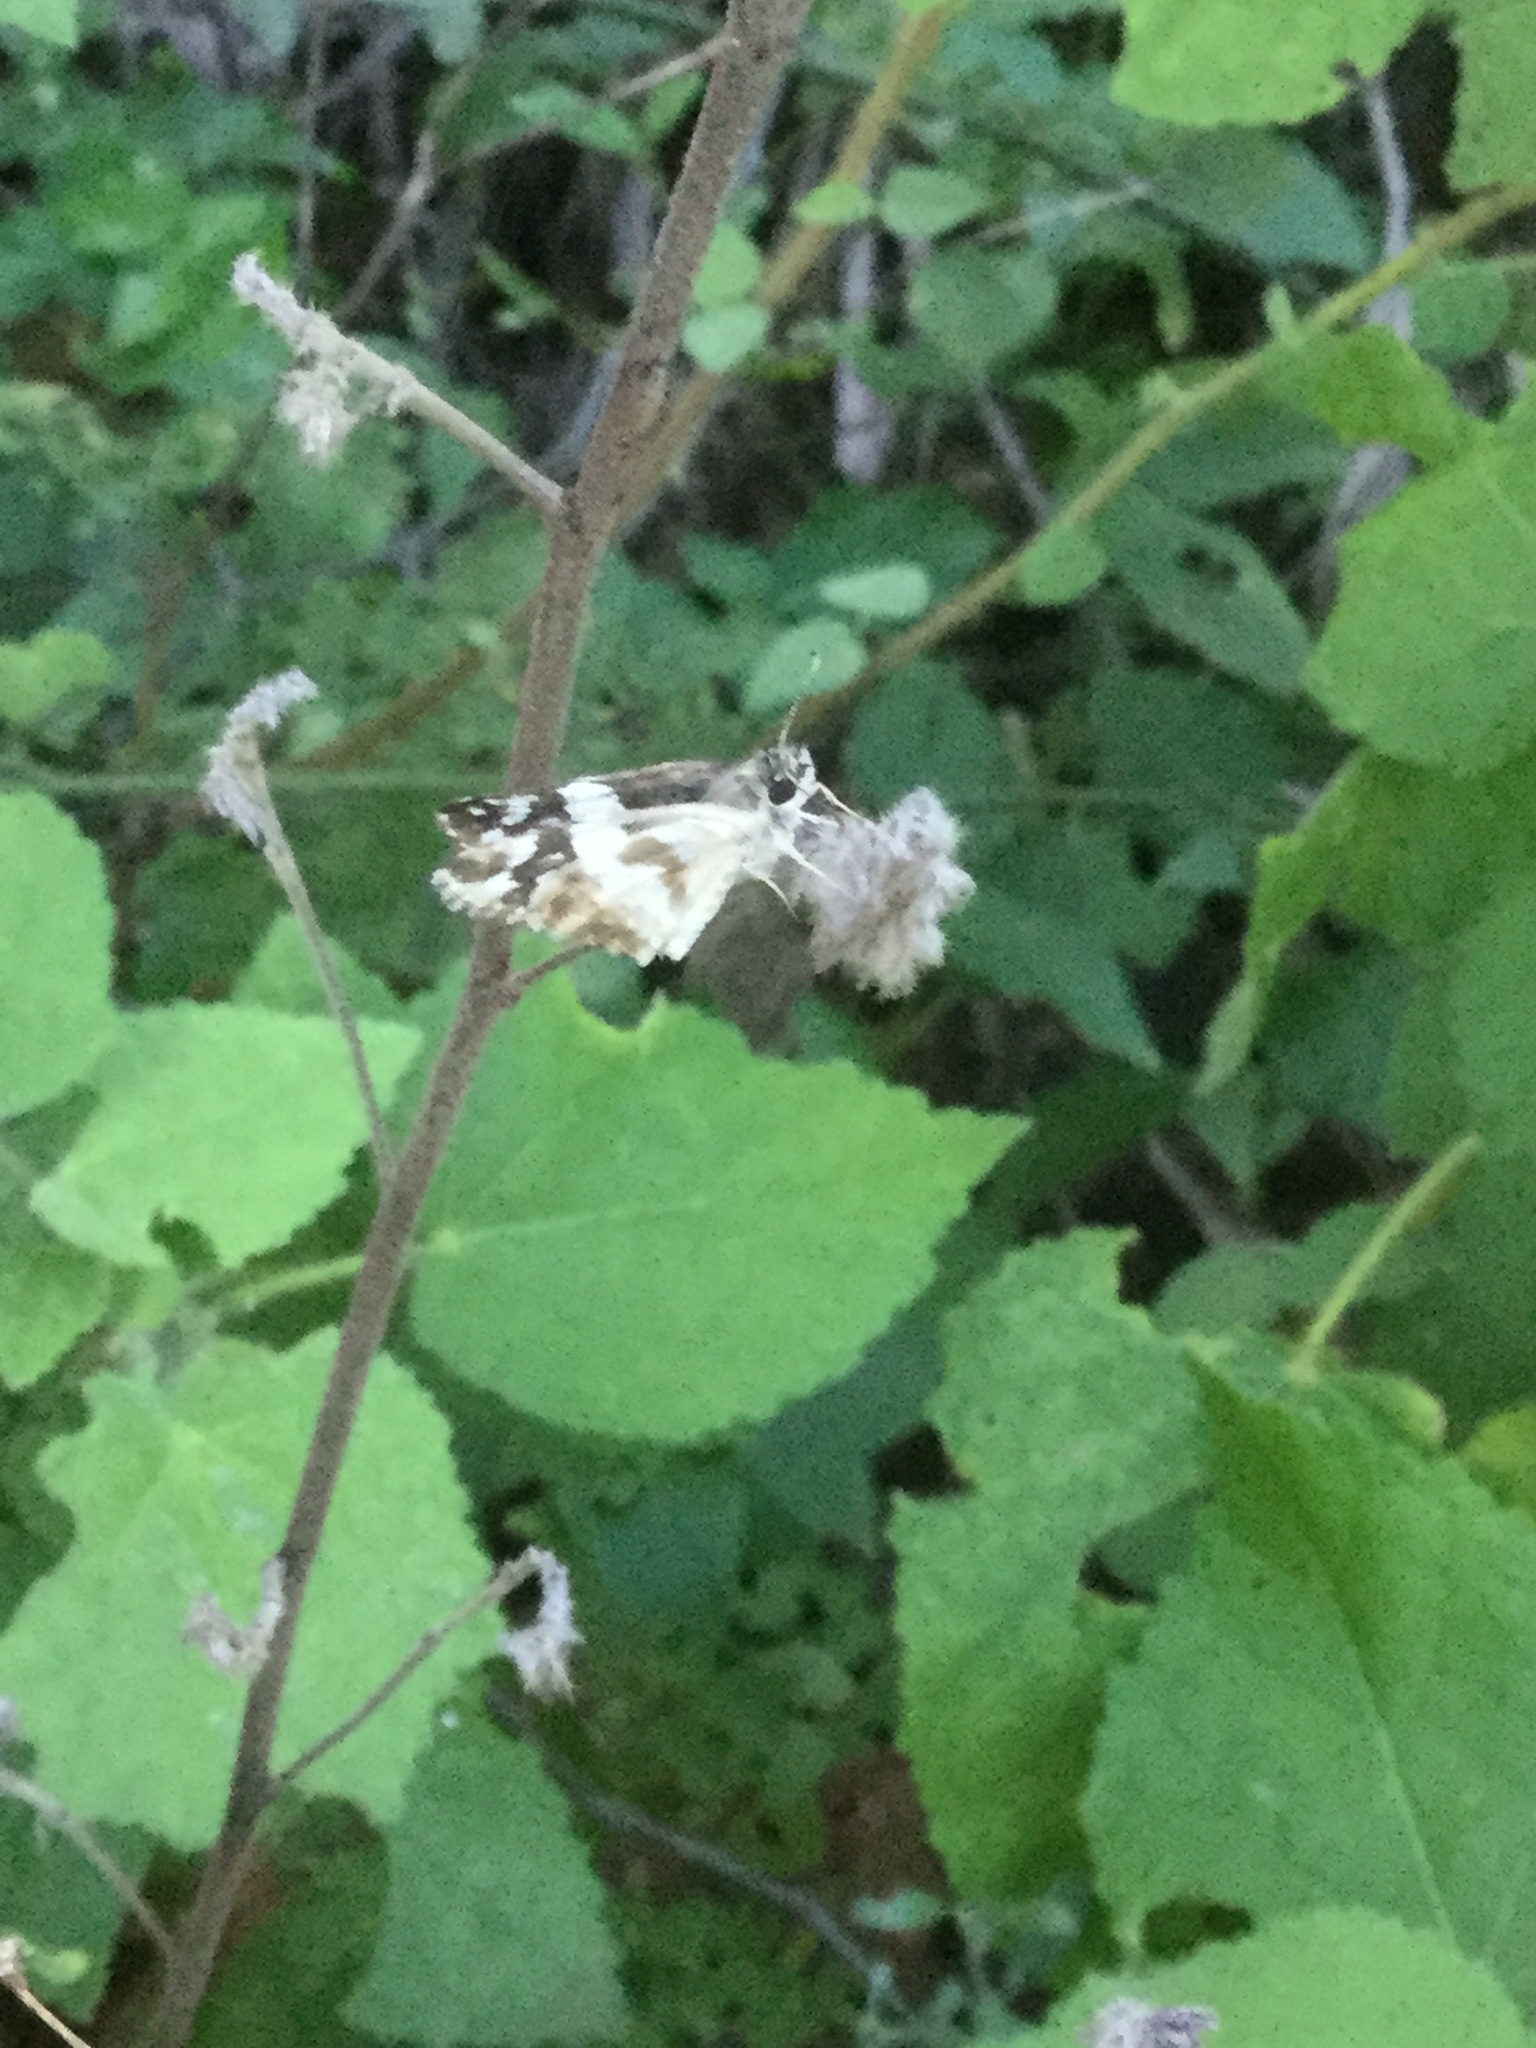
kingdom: Animalia
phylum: Arthropoda
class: Insecta
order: Lepidoptera
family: Hesperiidae
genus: Heliopyrgus
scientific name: Heliopyrgus domicella
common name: Erichson's white skipper
